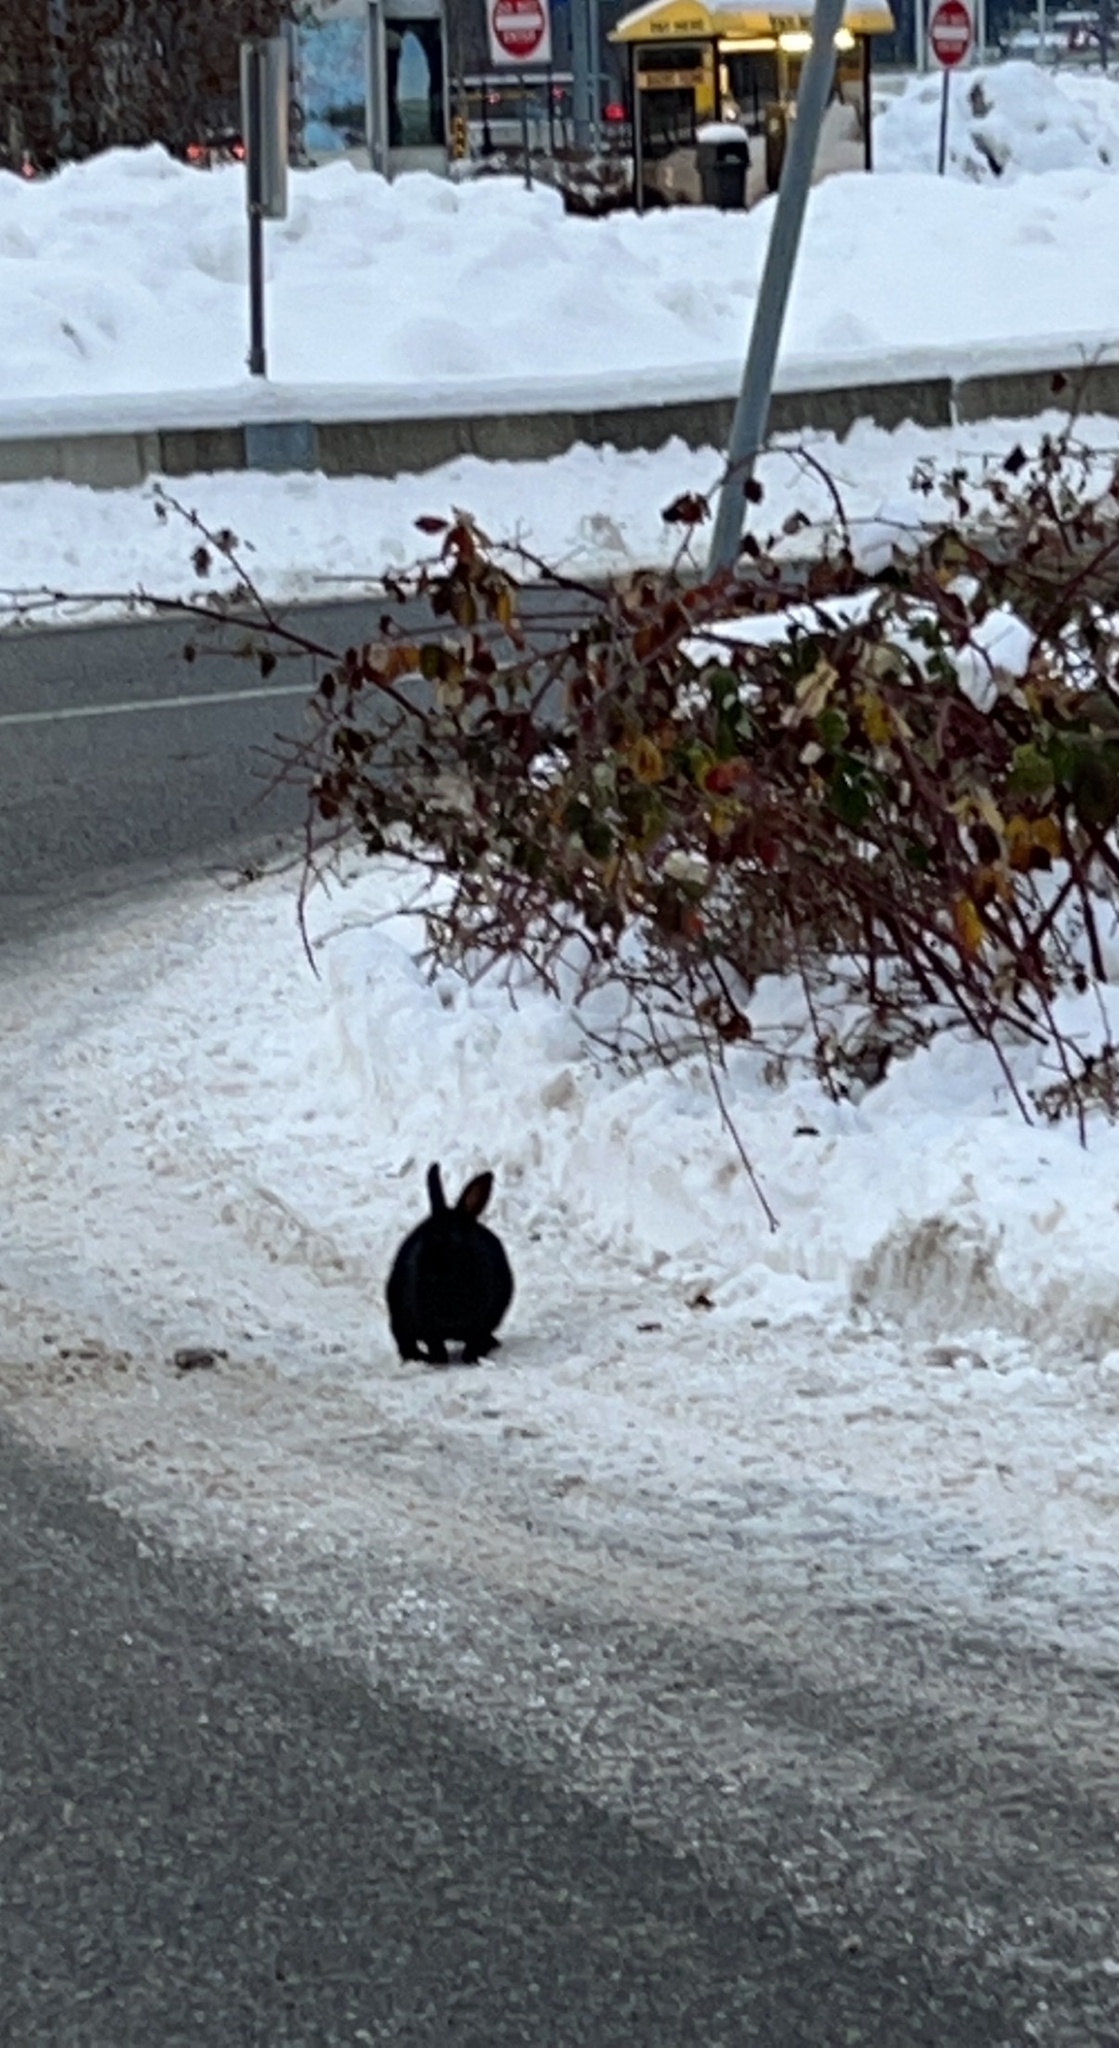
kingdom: Animalia
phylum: Chordata
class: Mammalia
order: Lagomorpha
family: Leporidae
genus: Oryctolagus
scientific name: Oryctolagus cuniculus
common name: European rabbit
